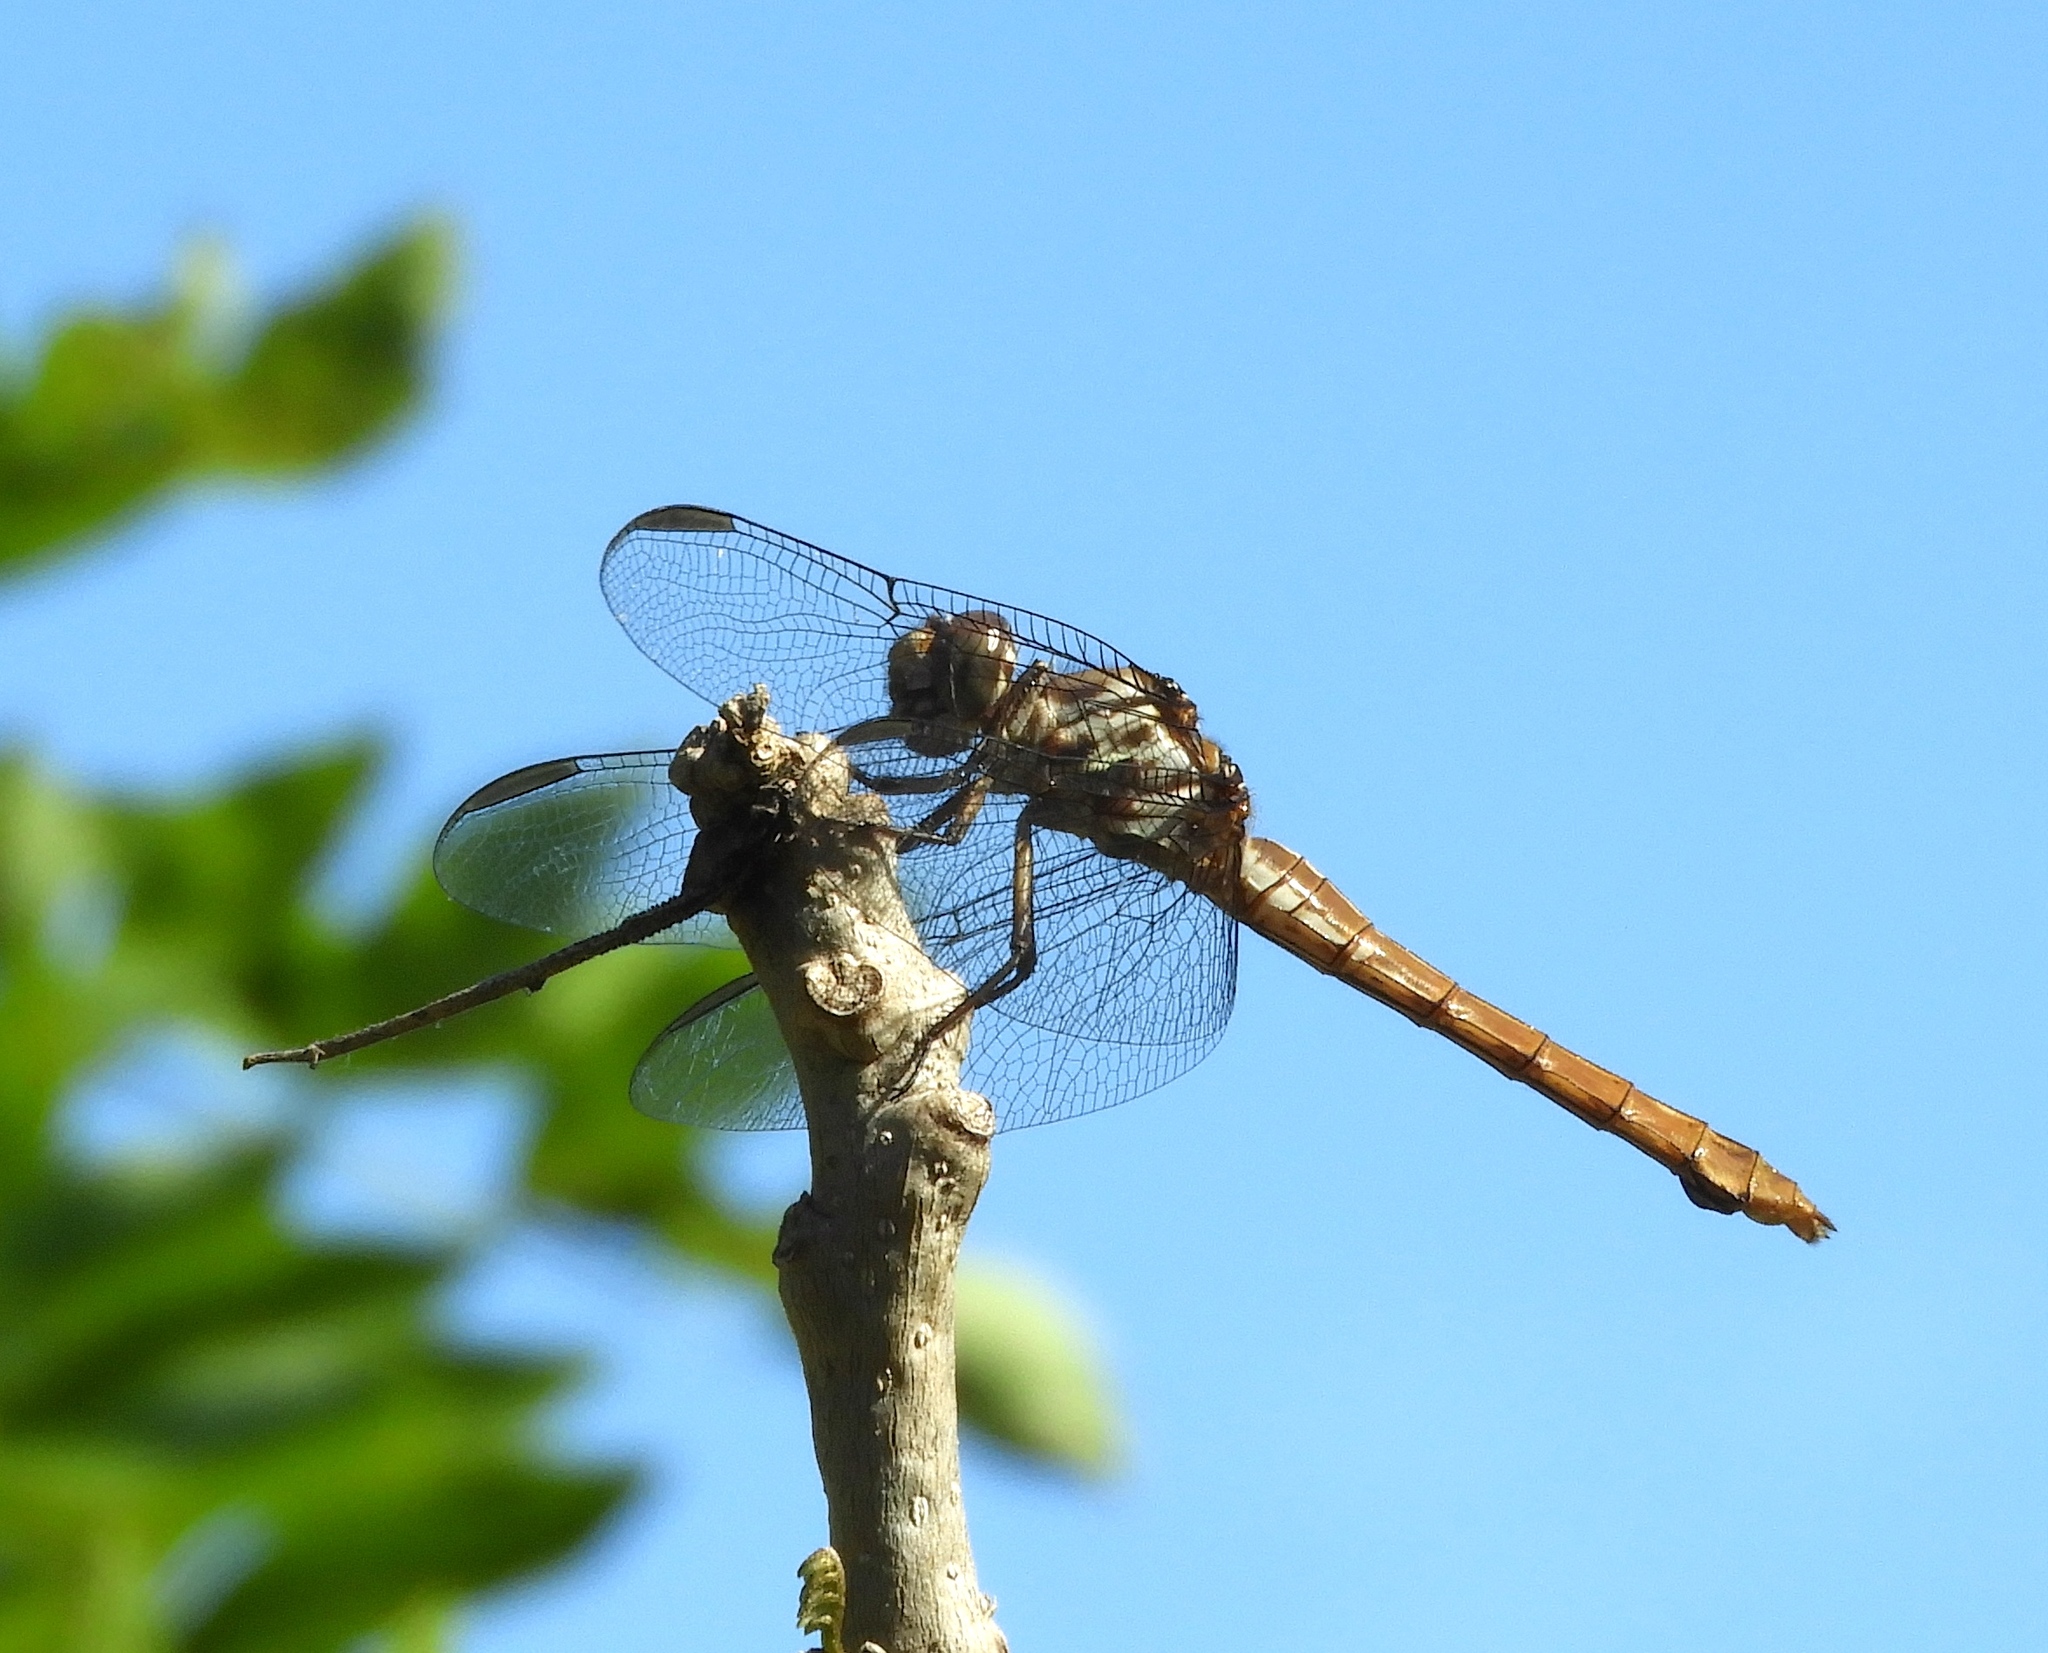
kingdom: Animalia
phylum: Arthropoda
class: Insecta
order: Odonata
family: Libellulidae
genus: Orthemis
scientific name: Orthemis ferruginea
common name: Roseate skimmer
